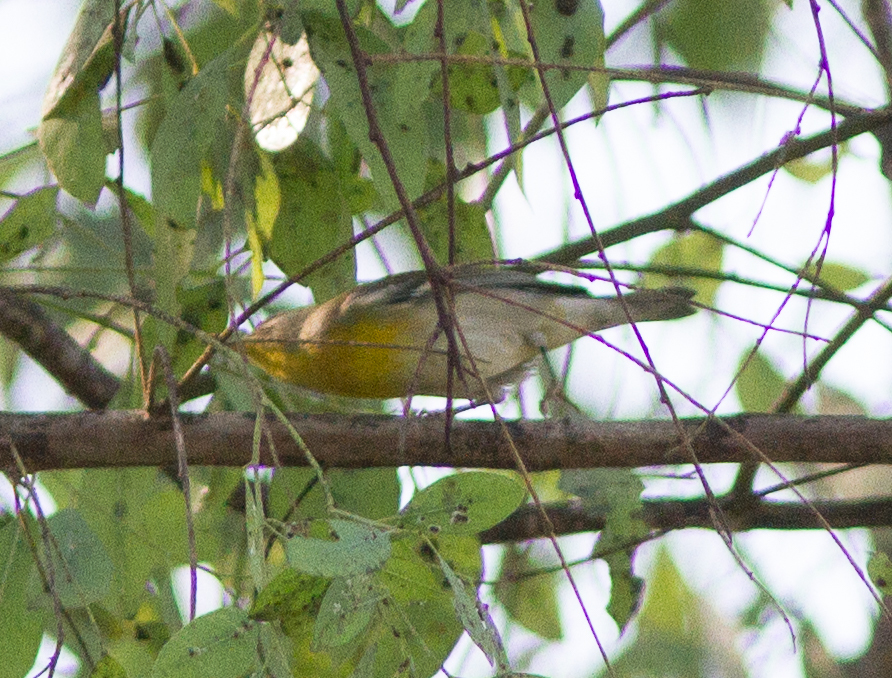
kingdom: Animalia
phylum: Chordata
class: Aves
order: Passeriformes
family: Parulidae
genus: Setophaga
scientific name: Setophaga americana
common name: Northern parula
